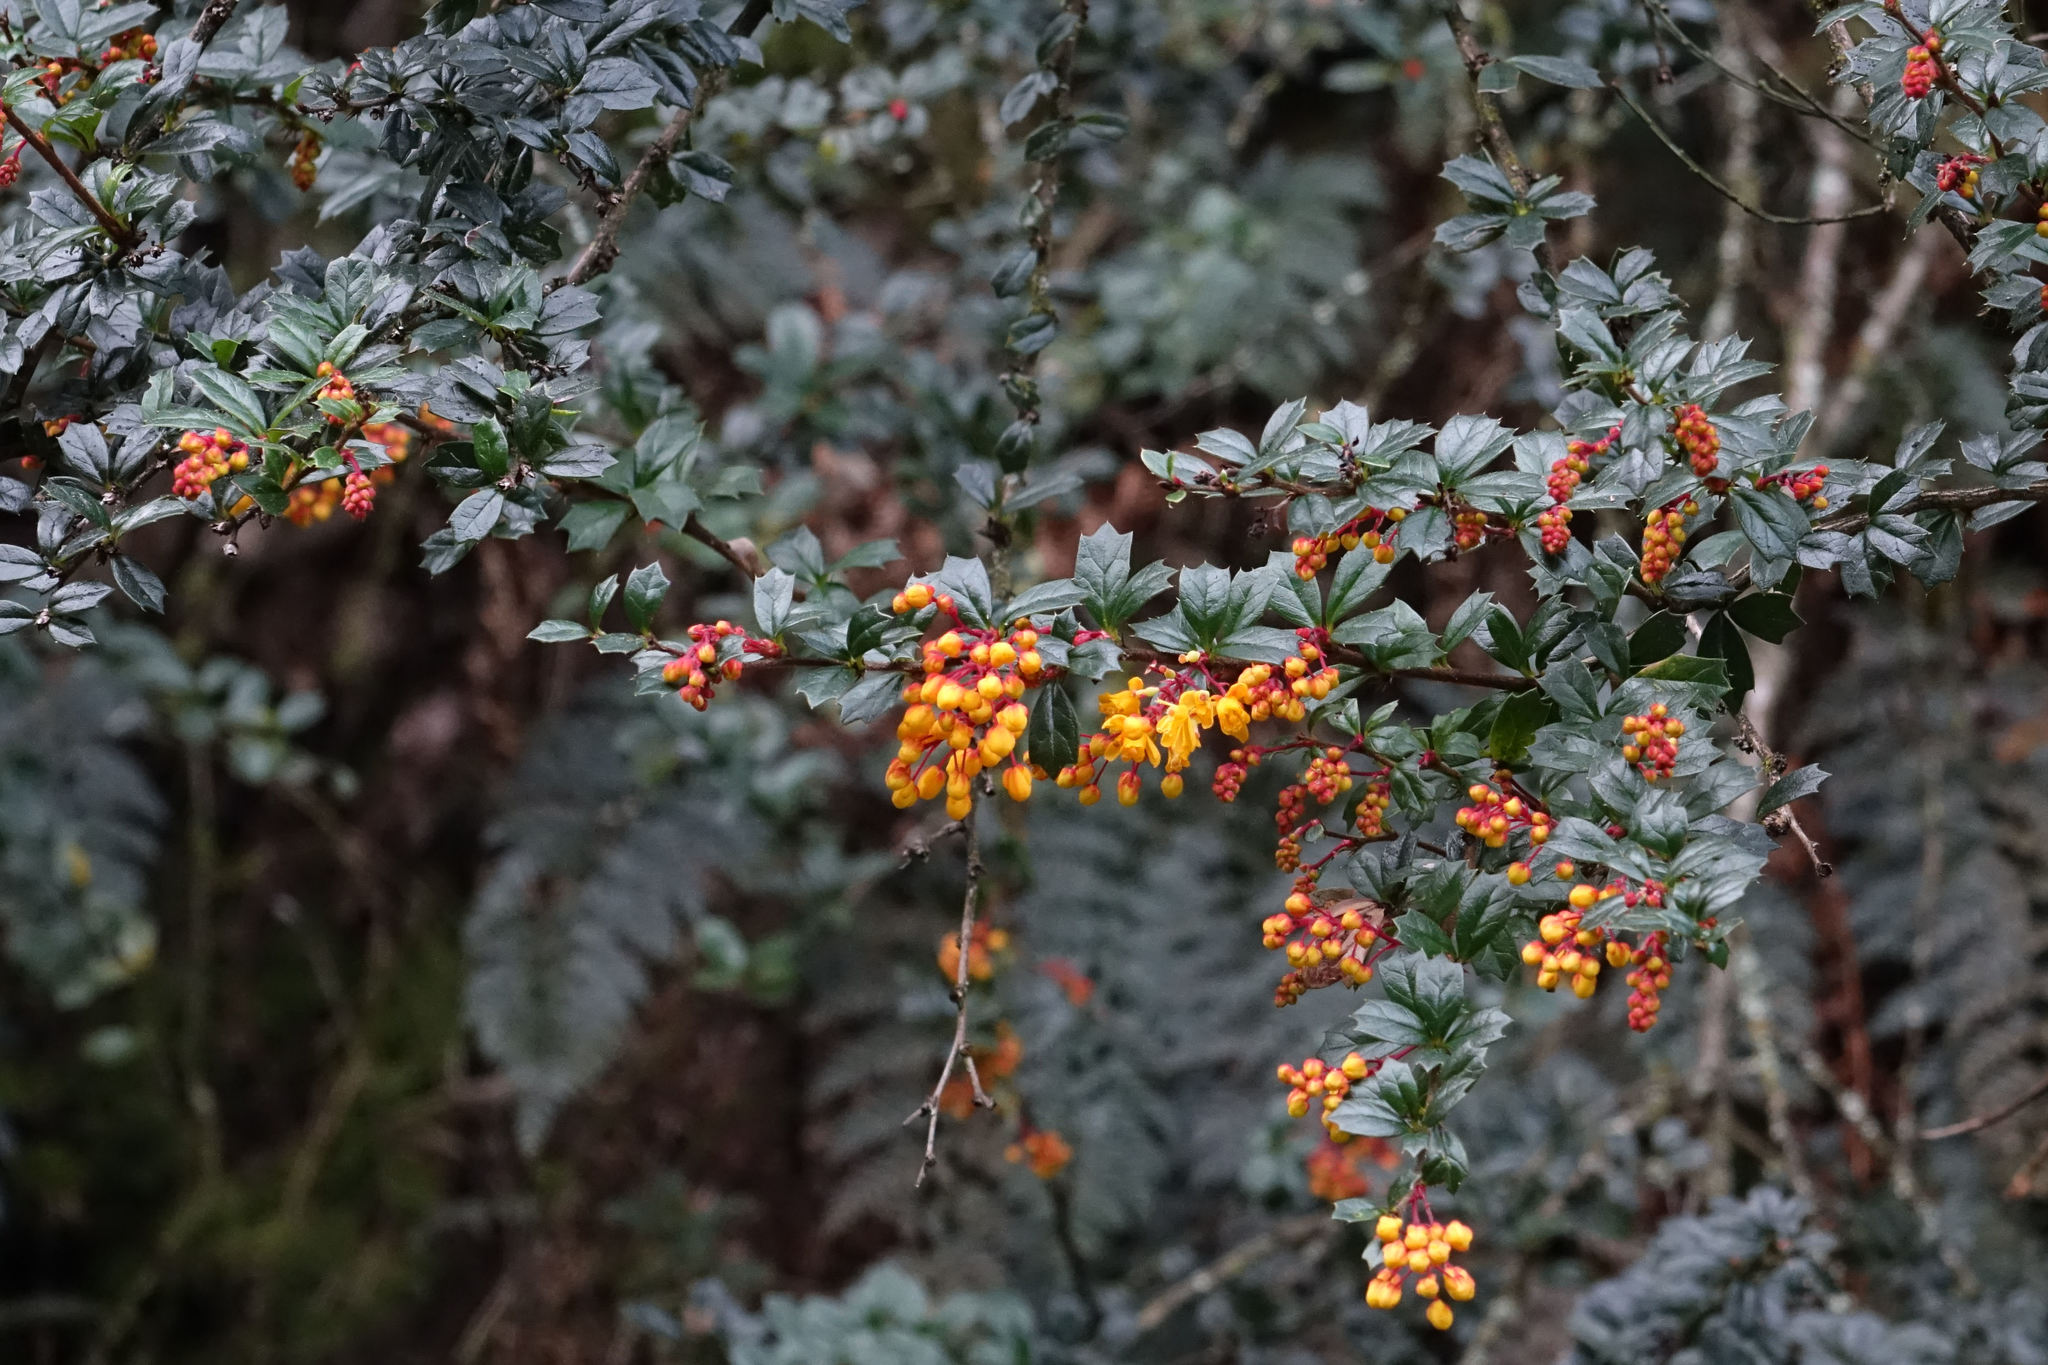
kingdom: Plantae
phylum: Tracheophyta
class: Magnoliopsida
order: Ranunculales
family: Berberidaceae
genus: Berberis
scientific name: Berberis darwinii
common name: Darwin's barberry
